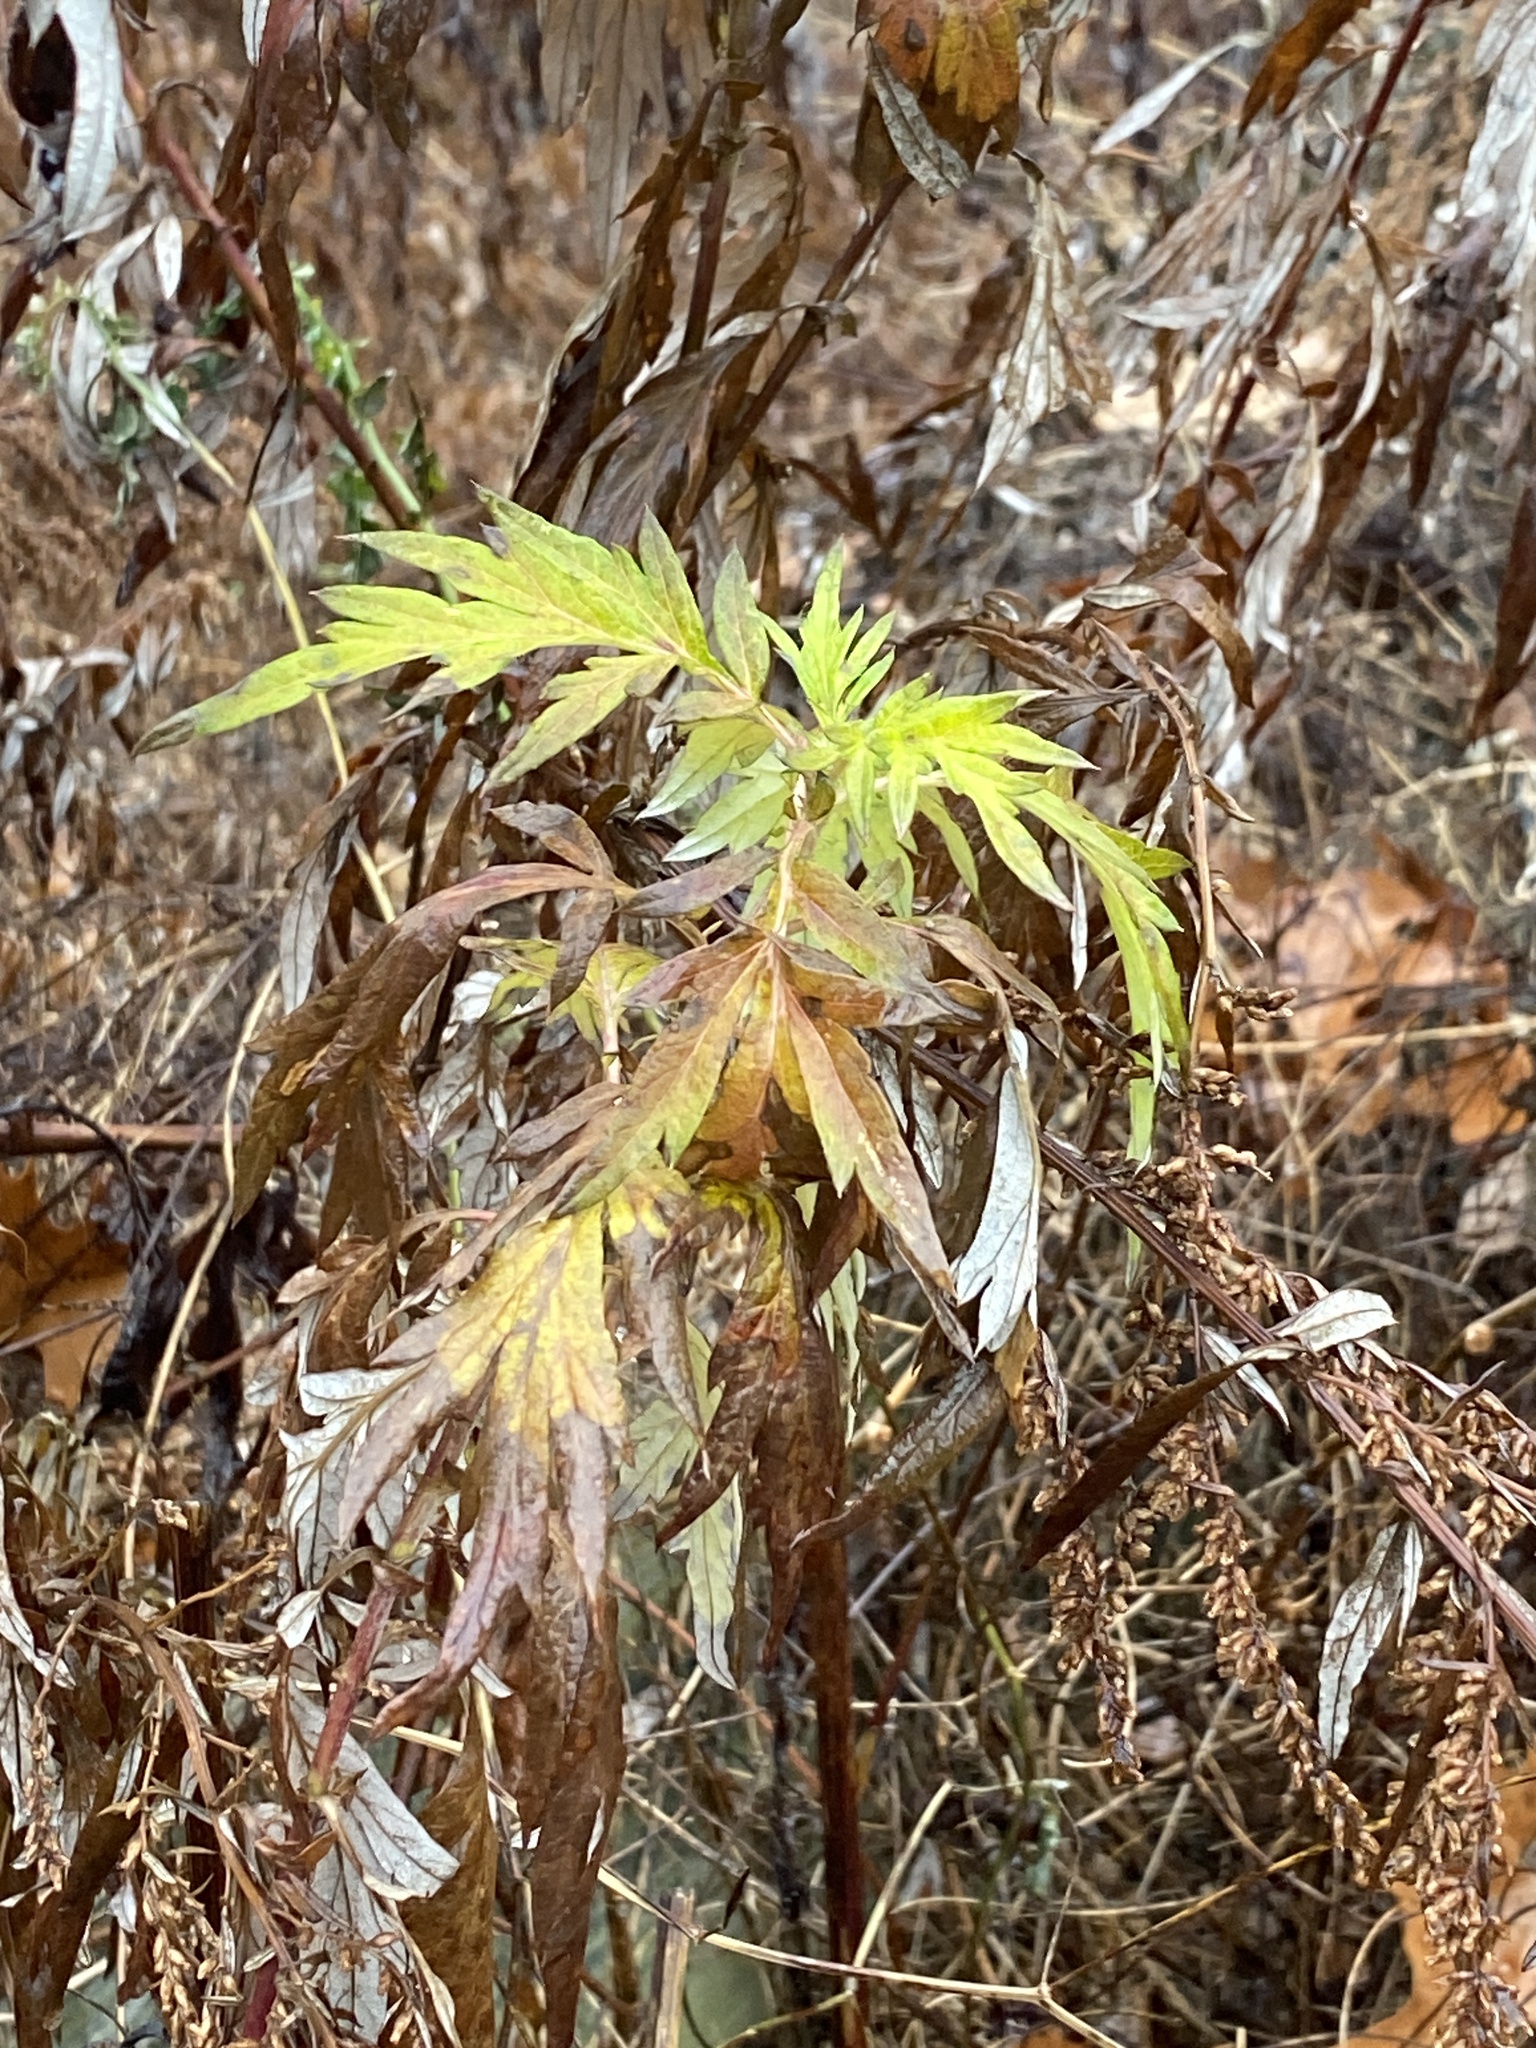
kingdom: Plantae
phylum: Tracheophyta
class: Magnoliopsida
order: Asterales
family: Asteraceae
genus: Artemisia
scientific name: Artemisia vulgaris
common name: Mugwort
